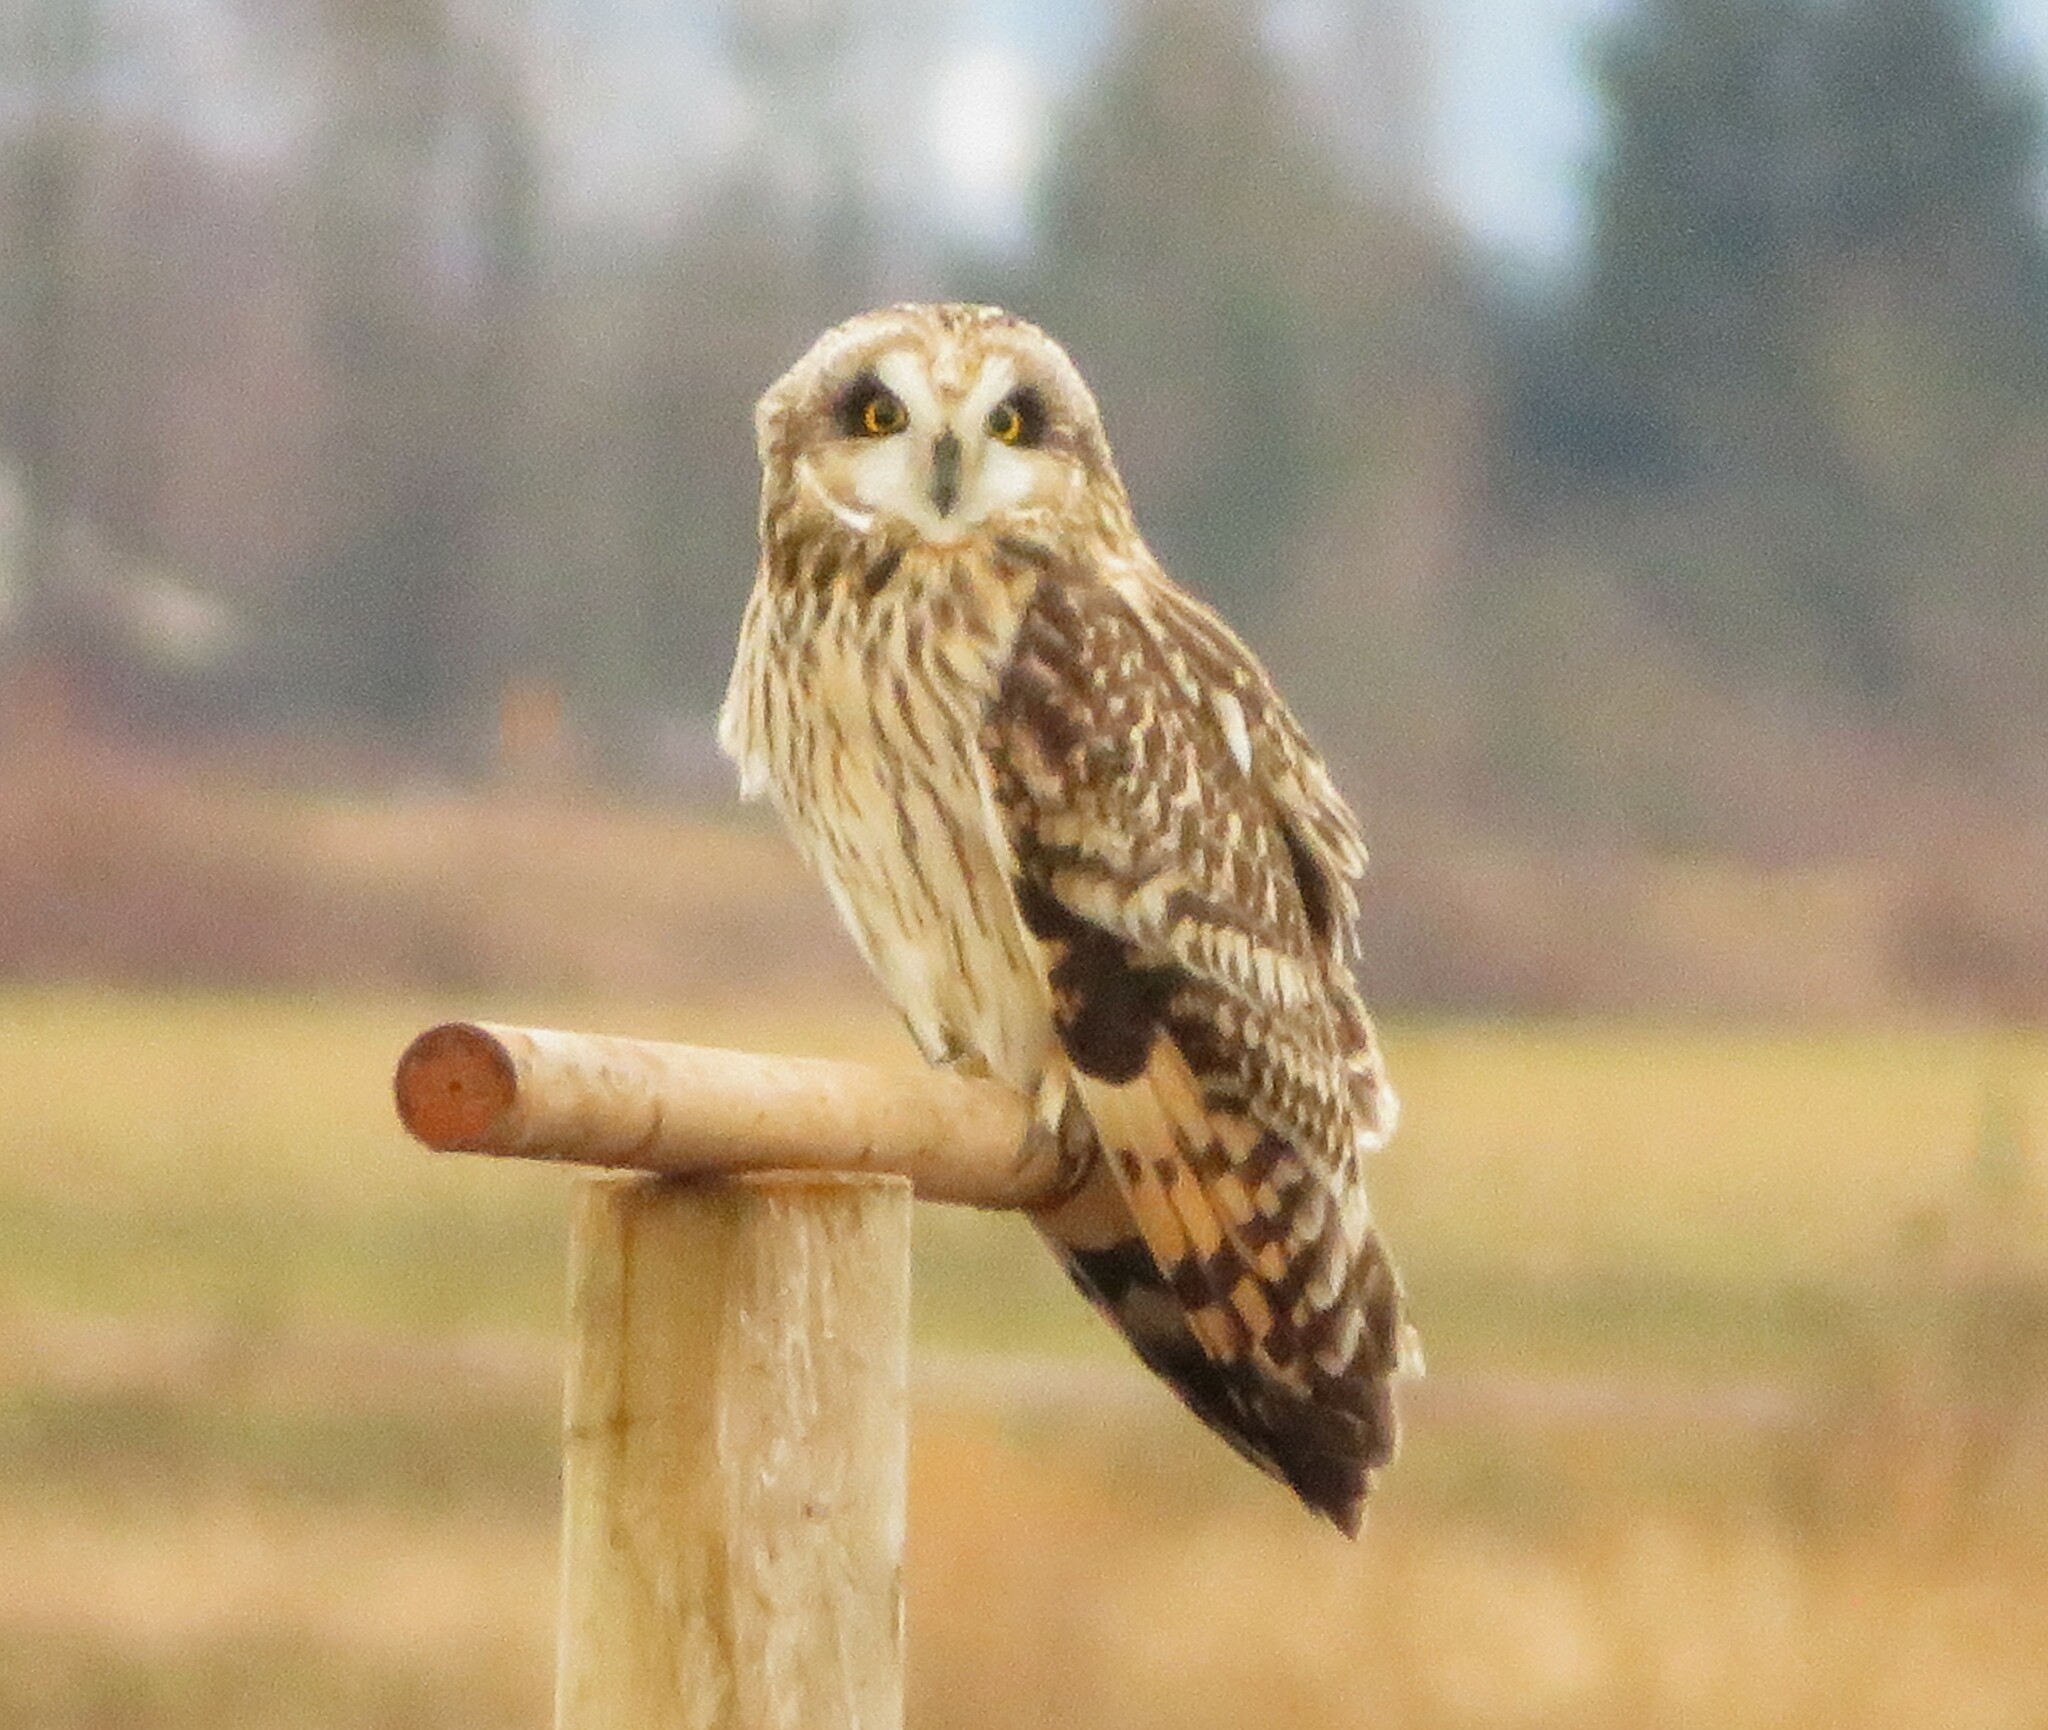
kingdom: Animalia
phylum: Chordata
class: Aves
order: Strigiformes
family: Strigidae
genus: Asio
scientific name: Asio flammeus
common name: Short-eared owl
